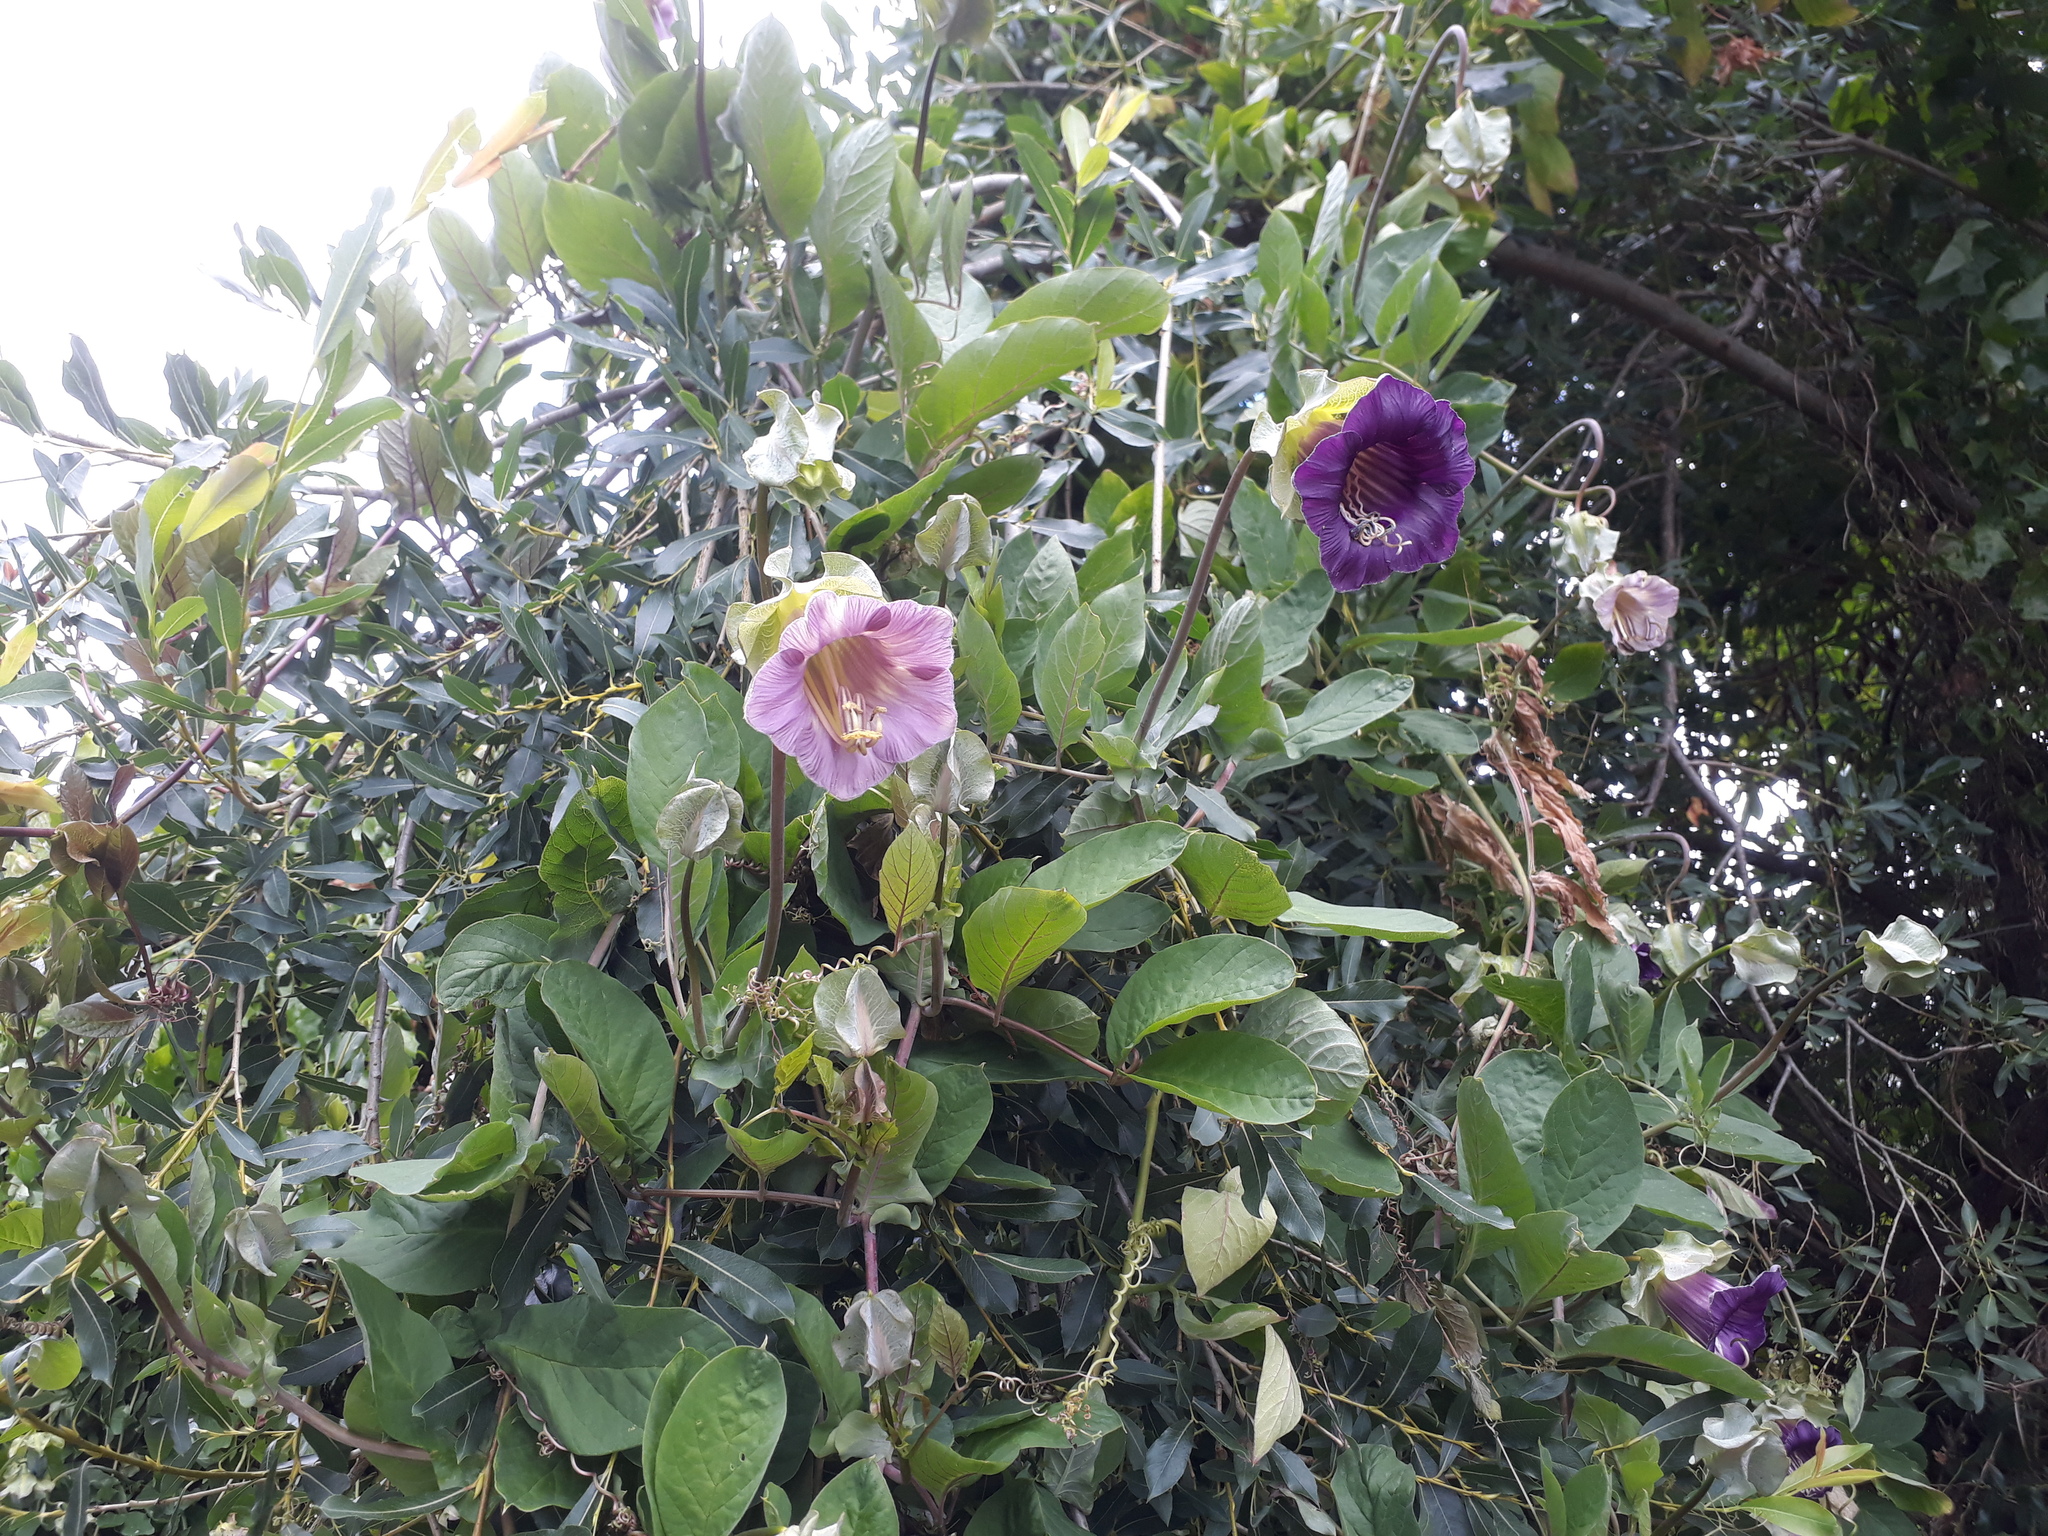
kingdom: Plantae
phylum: Tracheophyta
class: Magnoliopsida
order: Ericales
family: Polemoniaceae
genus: Cobaea
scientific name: Cobaea scandens
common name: Cup-and-saucer-vine
